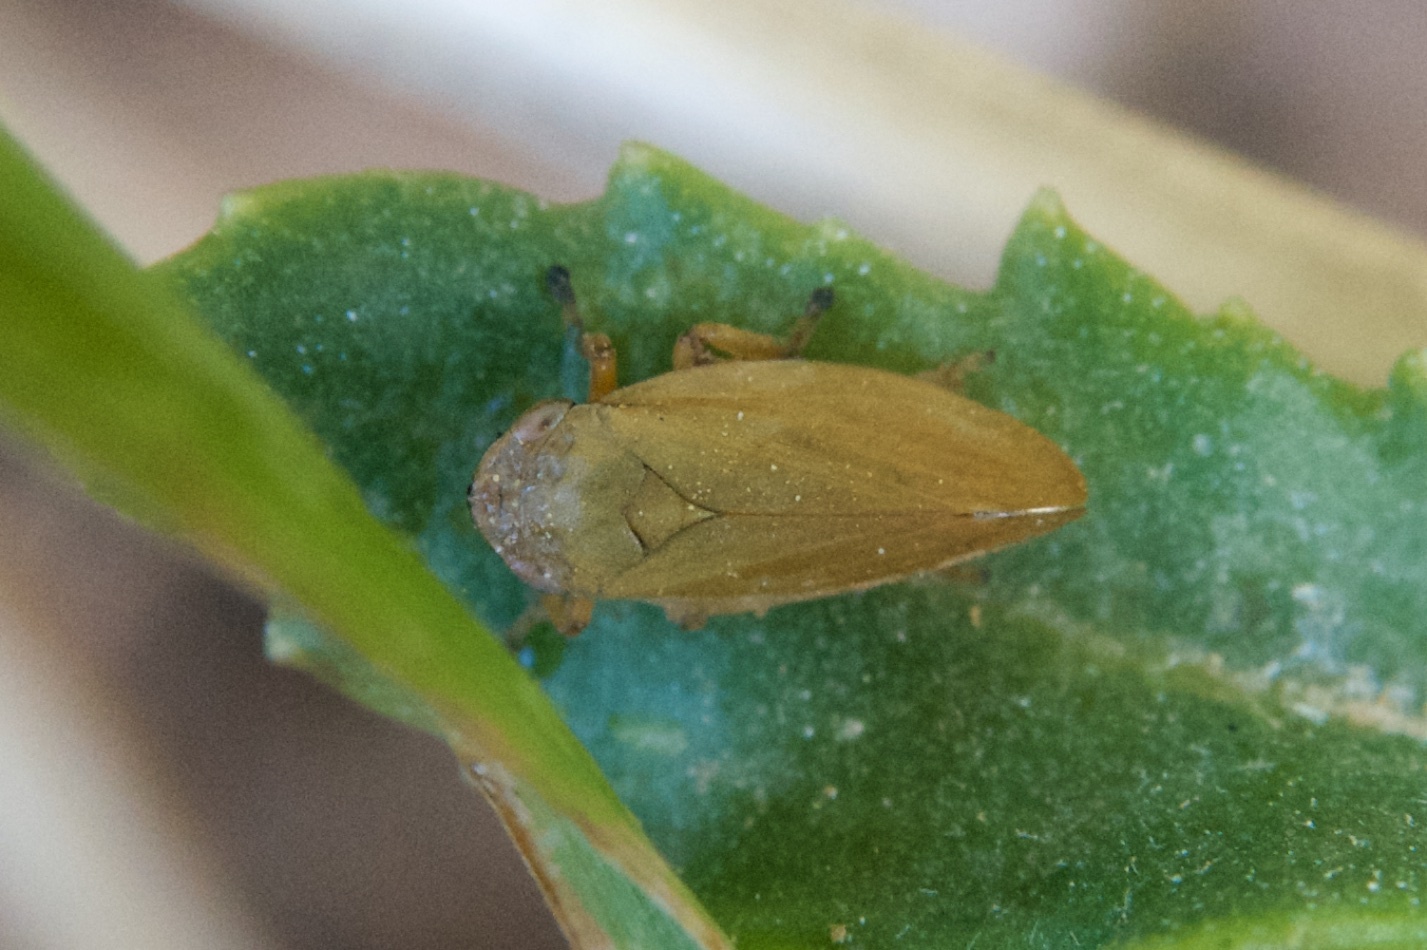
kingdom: Animalia
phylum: Arthropoda
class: Insecta
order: Hemiptera
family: Aphrophoridae
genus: Philaenus
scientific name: Philaenus spumarius
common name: Meadow spittlebug
